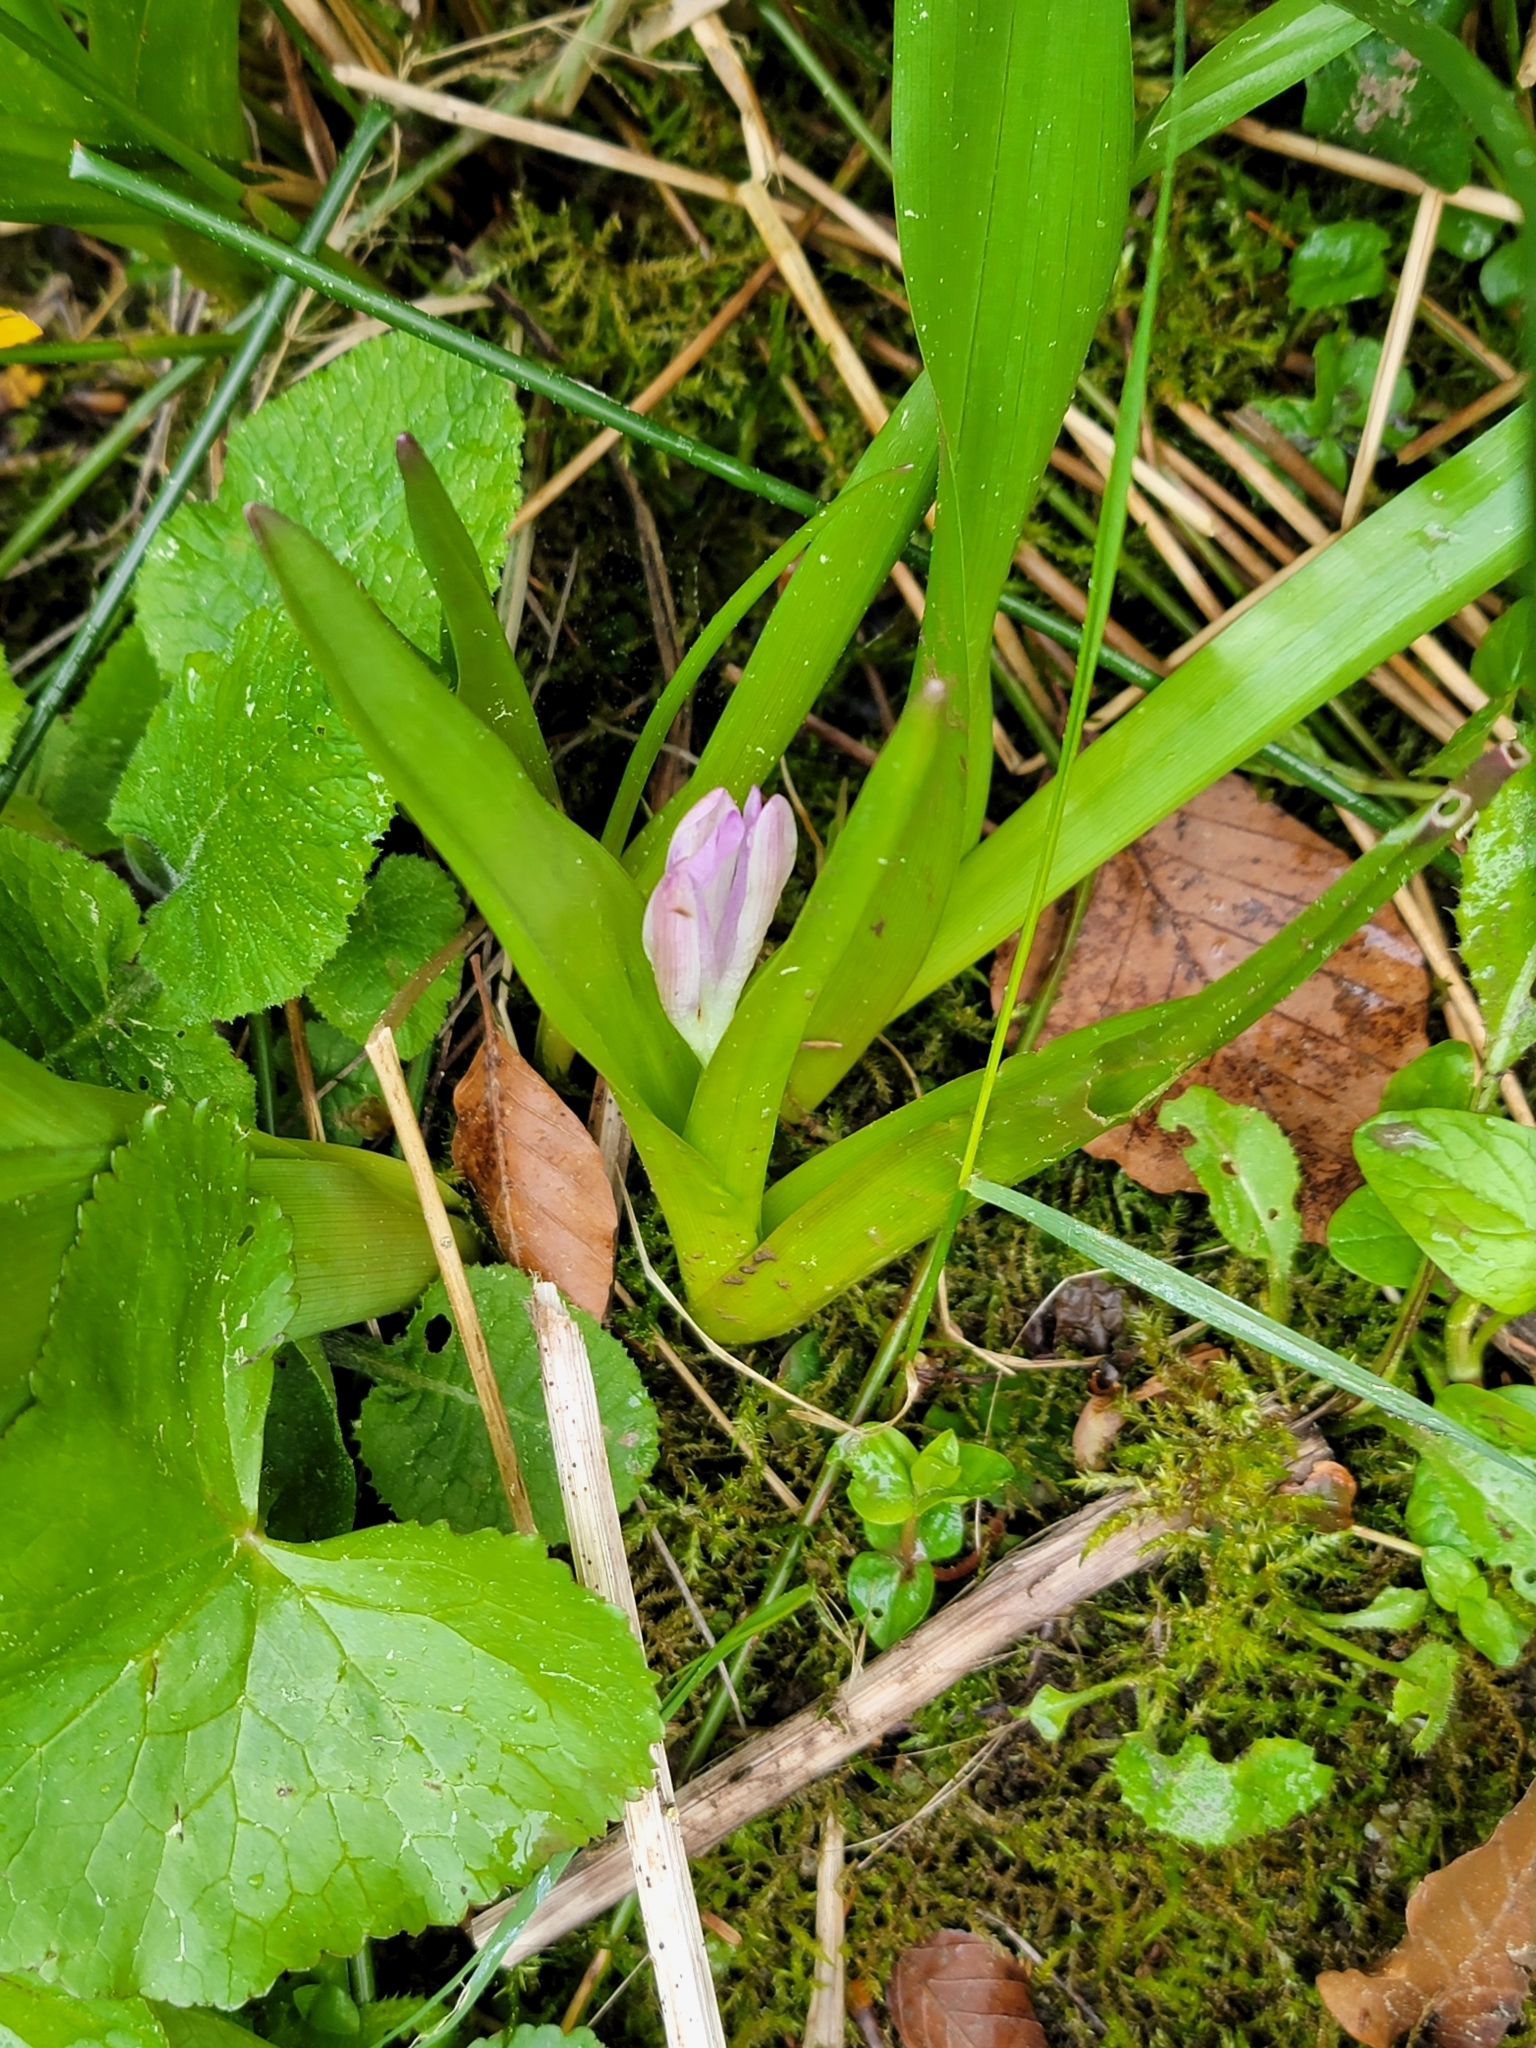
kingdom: Plantae
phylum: Tracheophyta
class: Liliopsida
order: Liliales
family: Colchicaceae
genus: Colchicum
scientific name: Colchicum autumnale
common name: Autumn crocus
